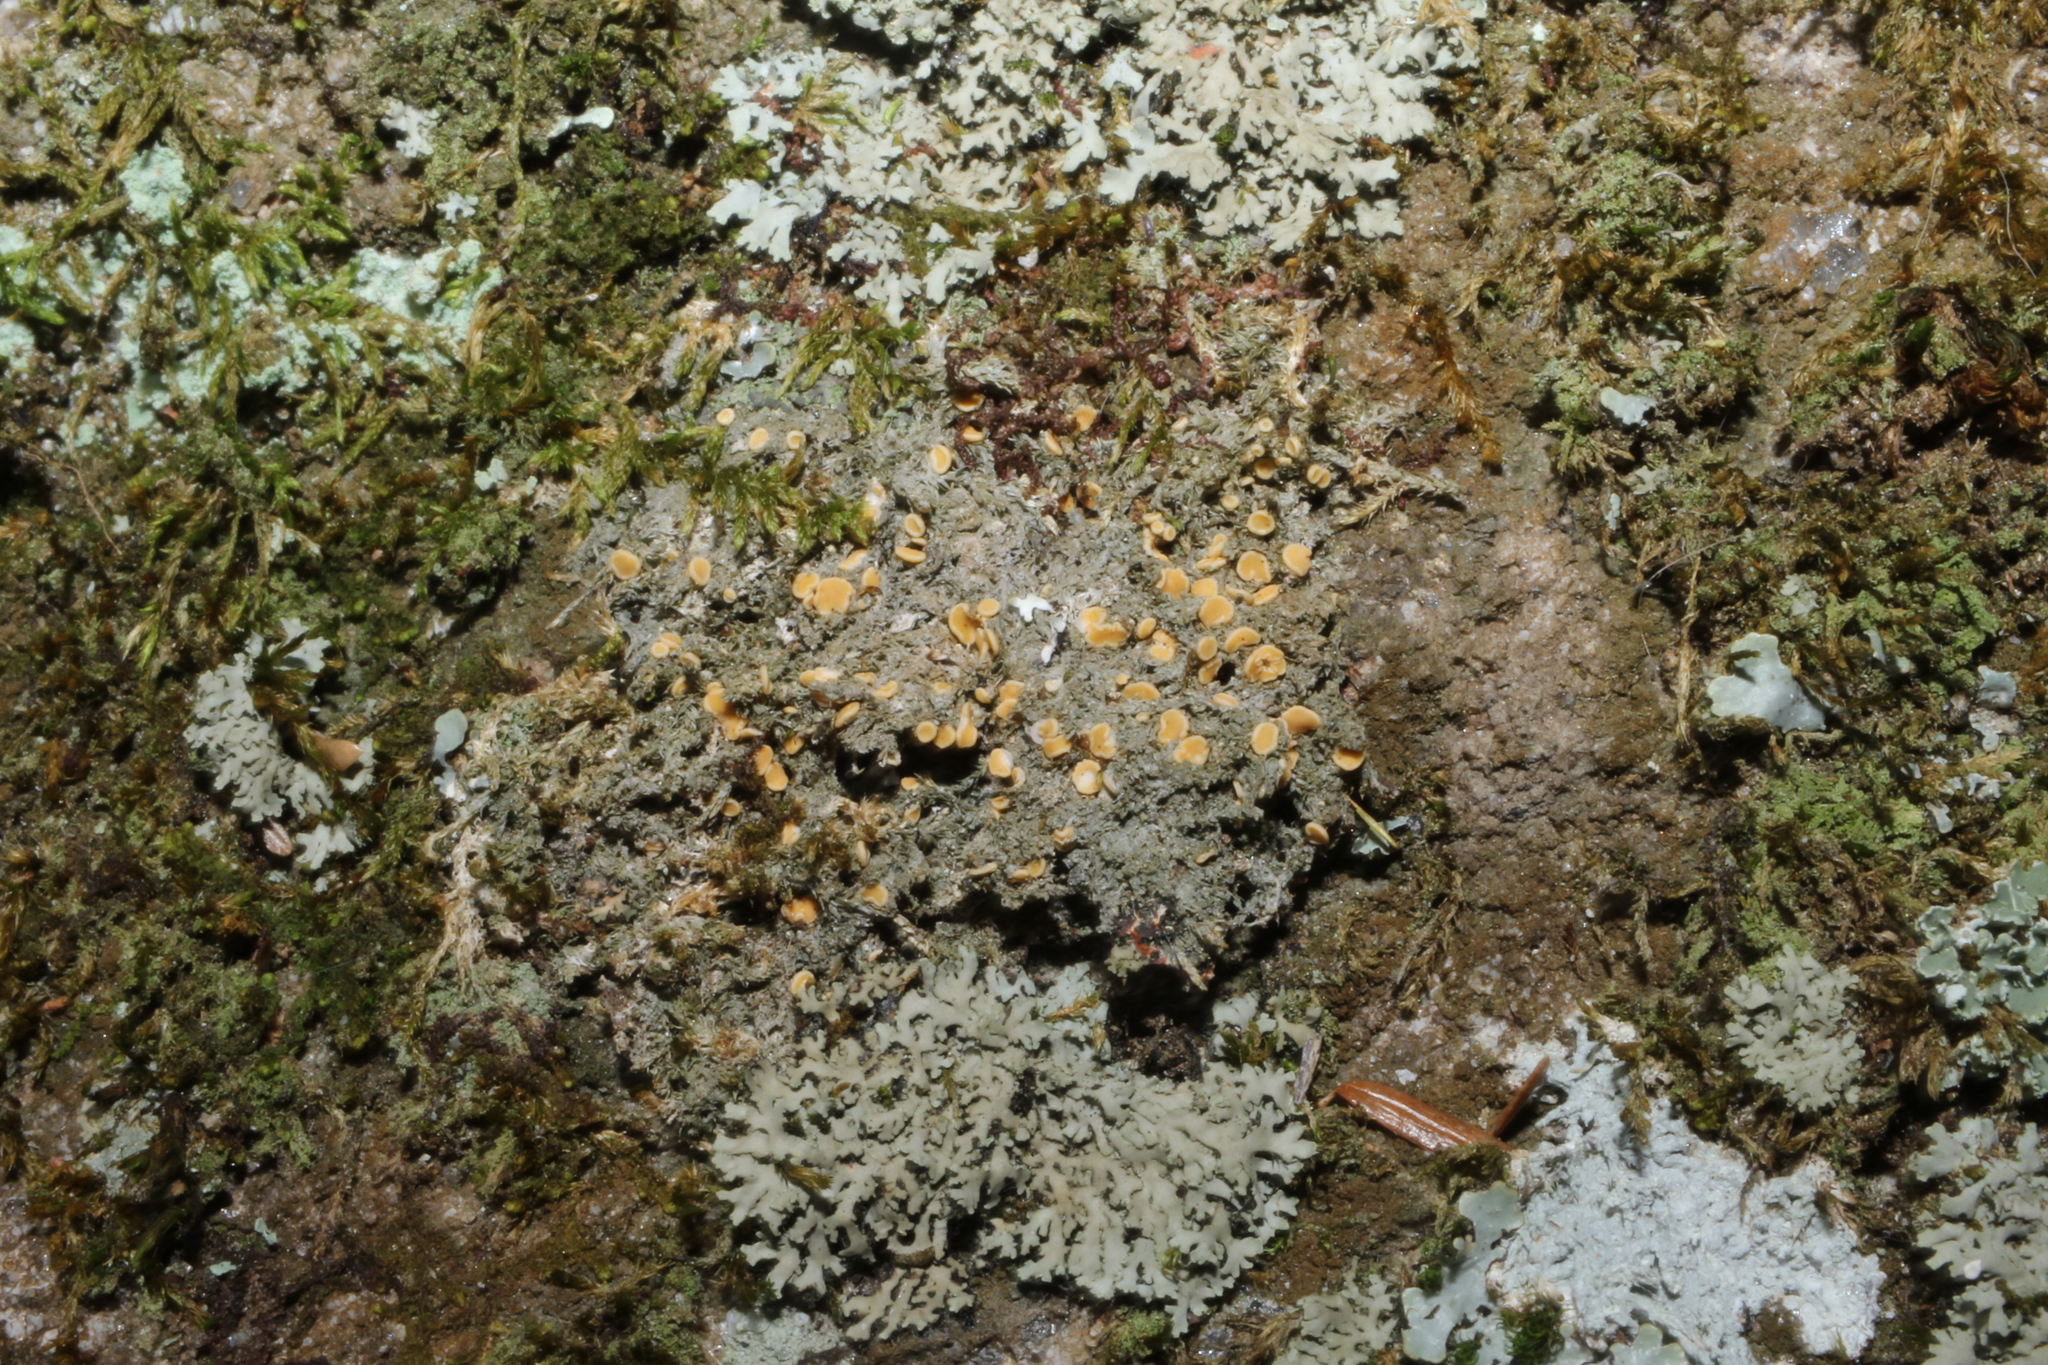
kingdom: Fungi
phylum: Ascomycota
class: Lecanoromycetes
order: Ostropales
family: Coenogoniaceae
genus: Coenogonium
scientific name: Coenogonium luteum
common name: Orange dimple lichen
